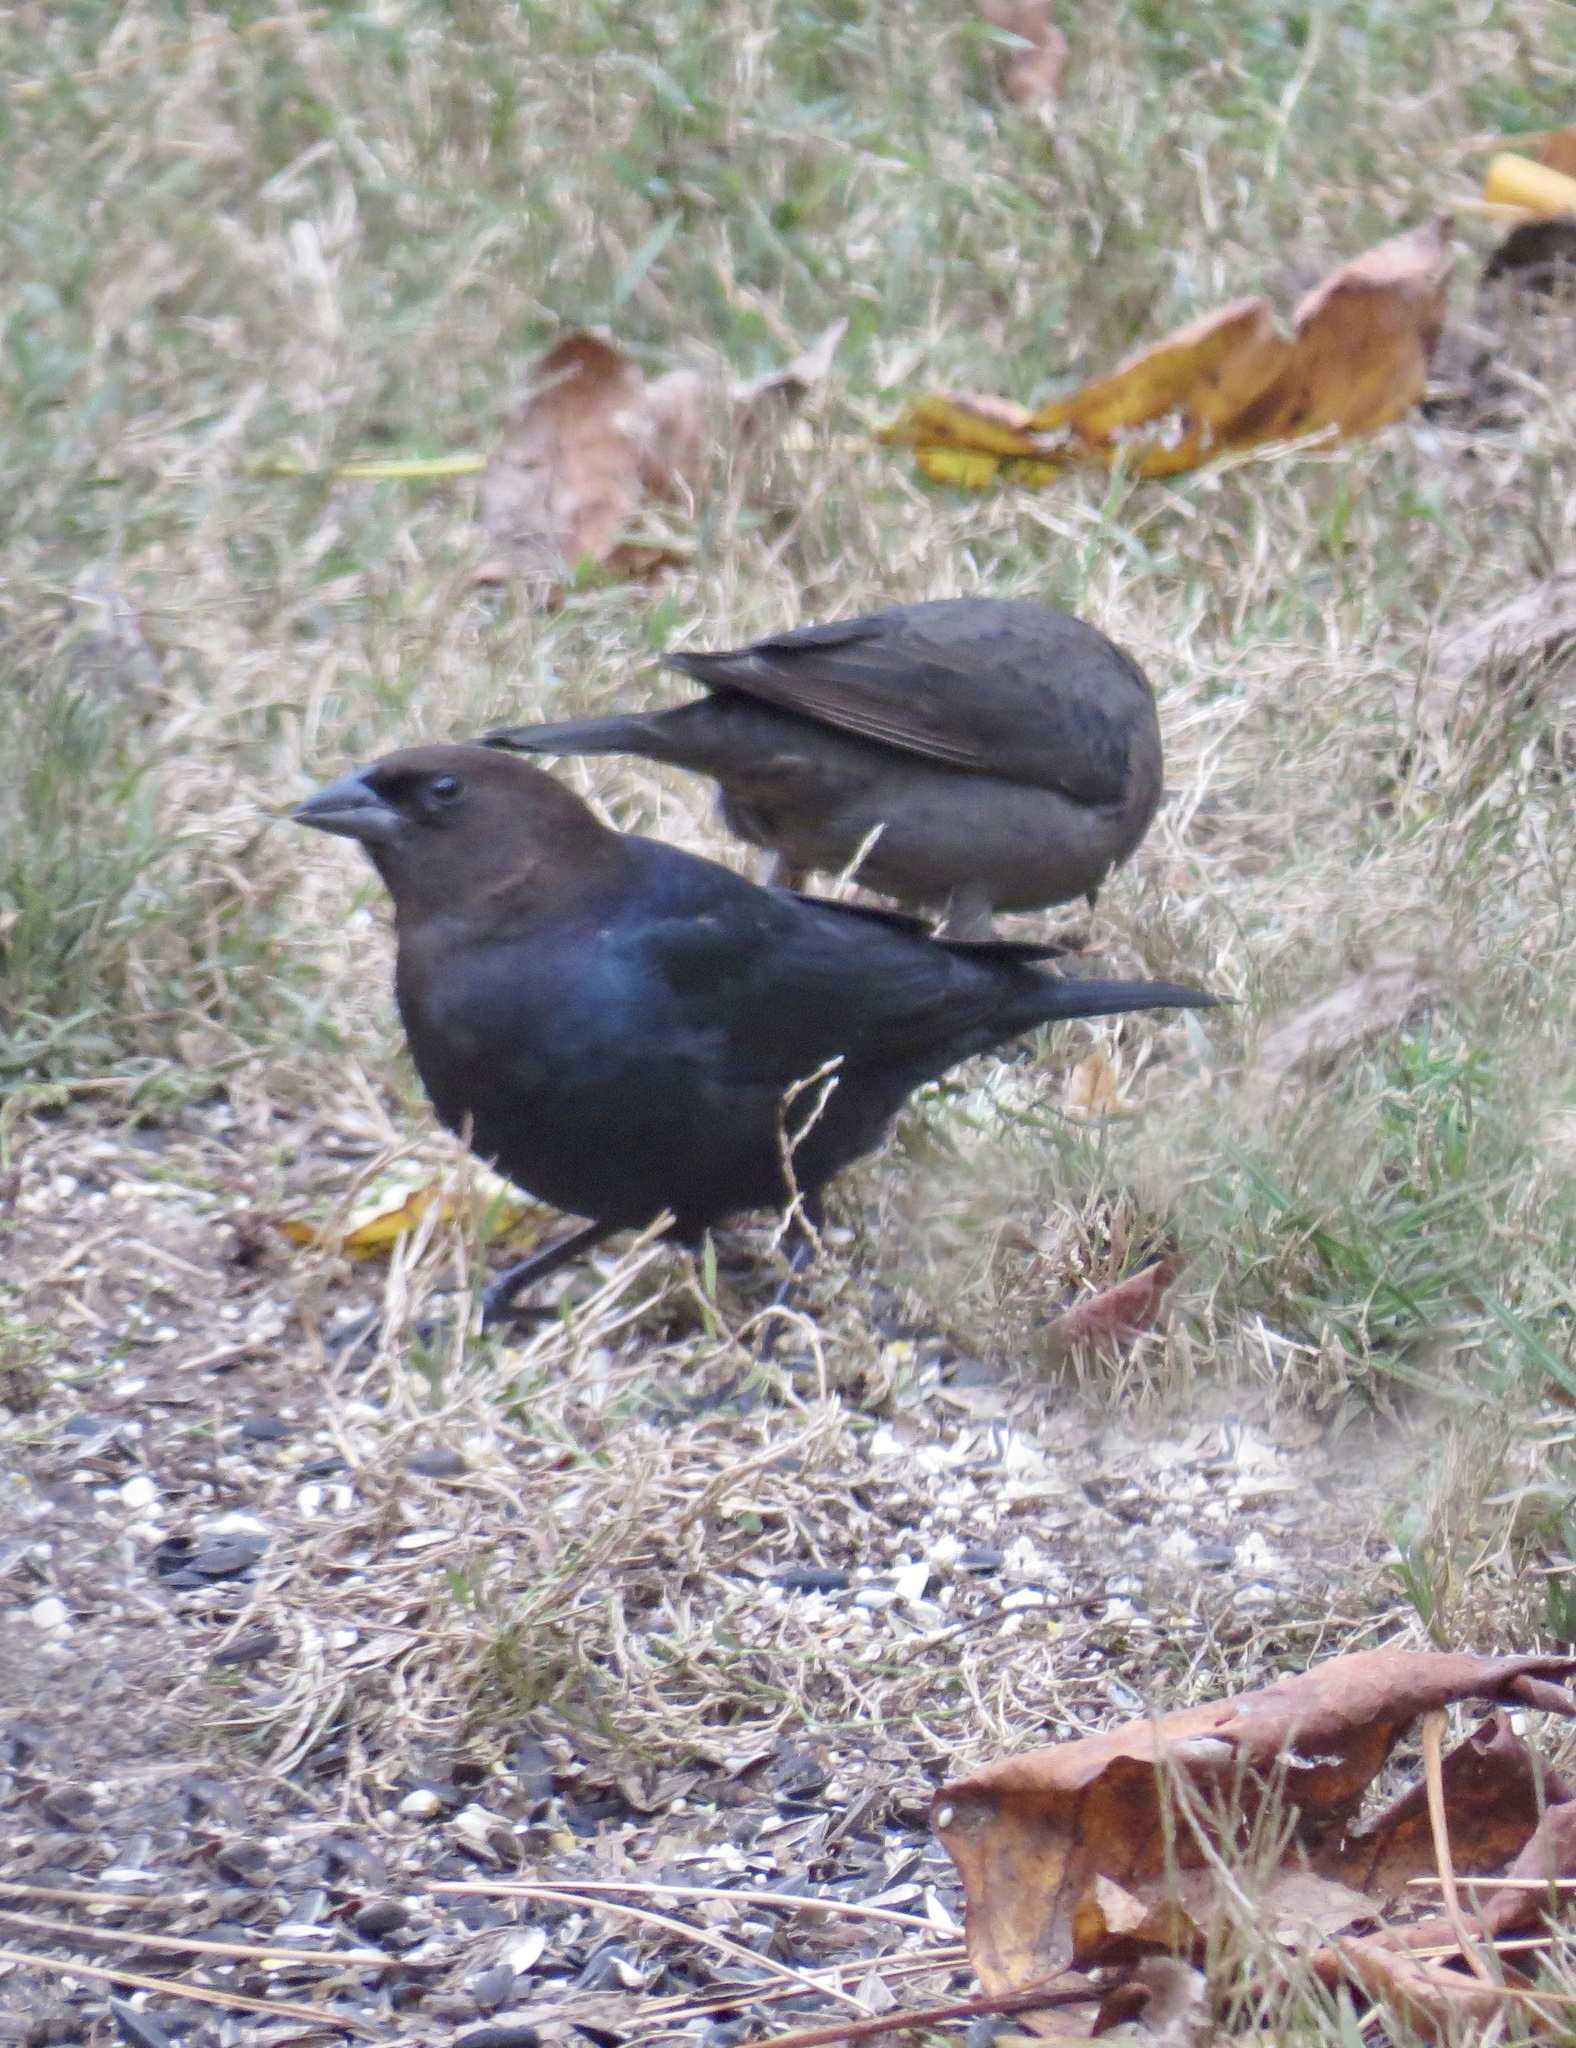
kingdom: Animalia
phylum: Chordata
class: Aves
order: Passeriformes
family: Icteridae
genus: Molothrus
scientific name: Molothrus ater
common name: Brown-headed cowbird
